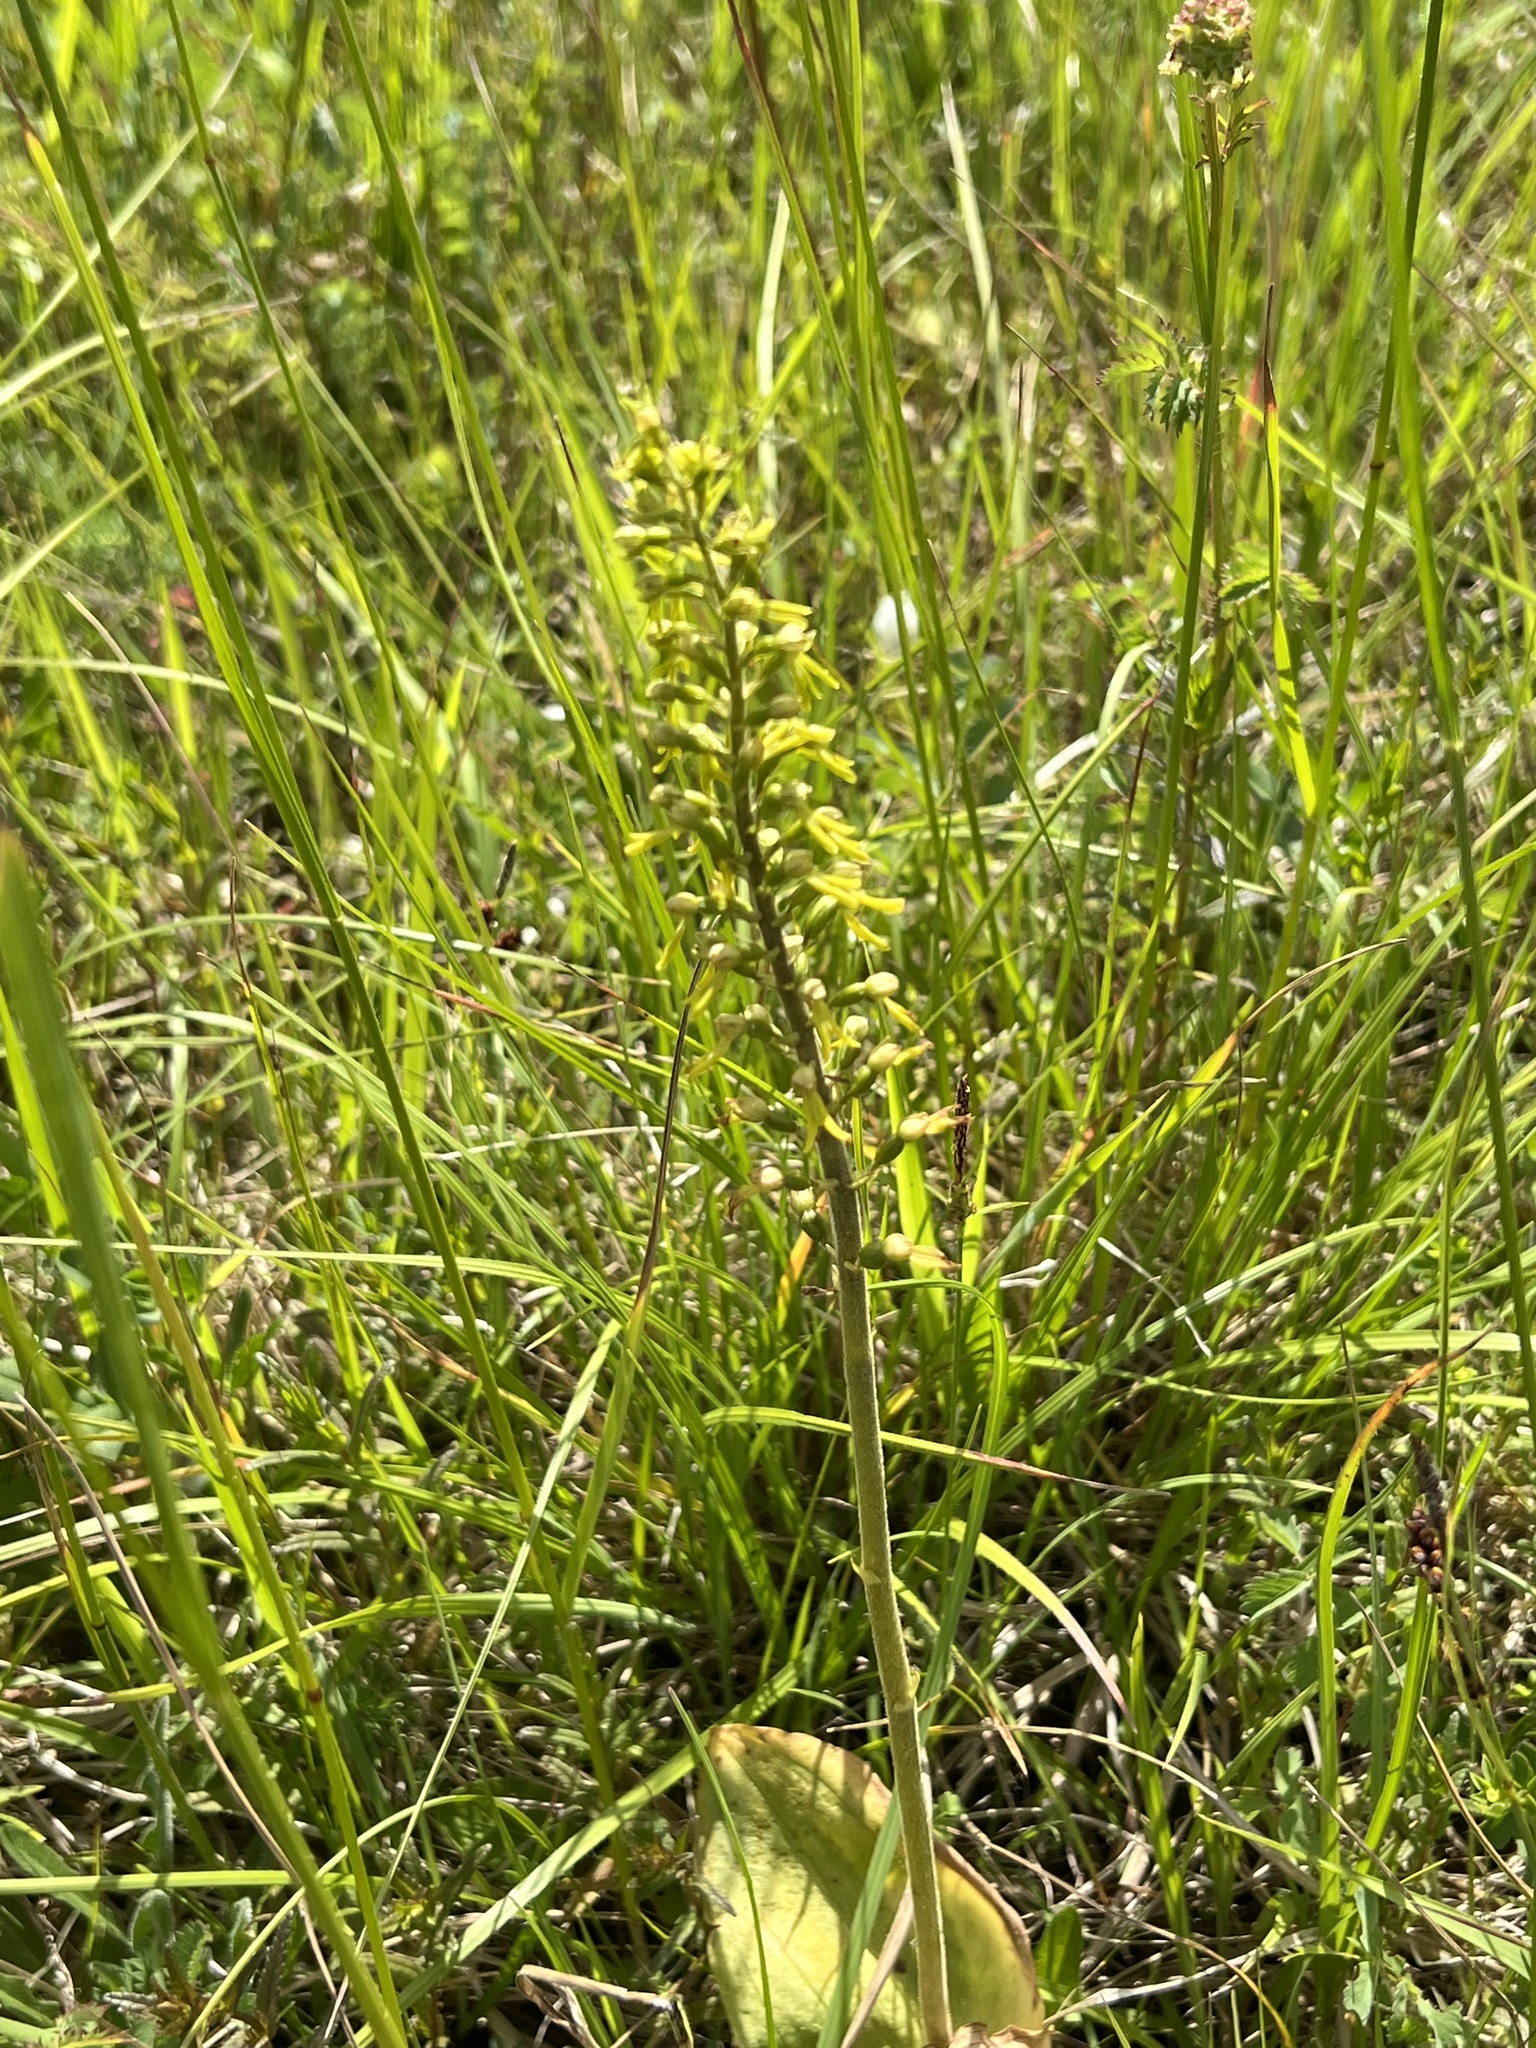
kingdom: Plantae
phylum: Tracheophyta
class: Liliopsida
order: Asparagales
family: Orchidaceae
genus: Neottia
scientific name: Neottia ovata
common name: Common twayblade
